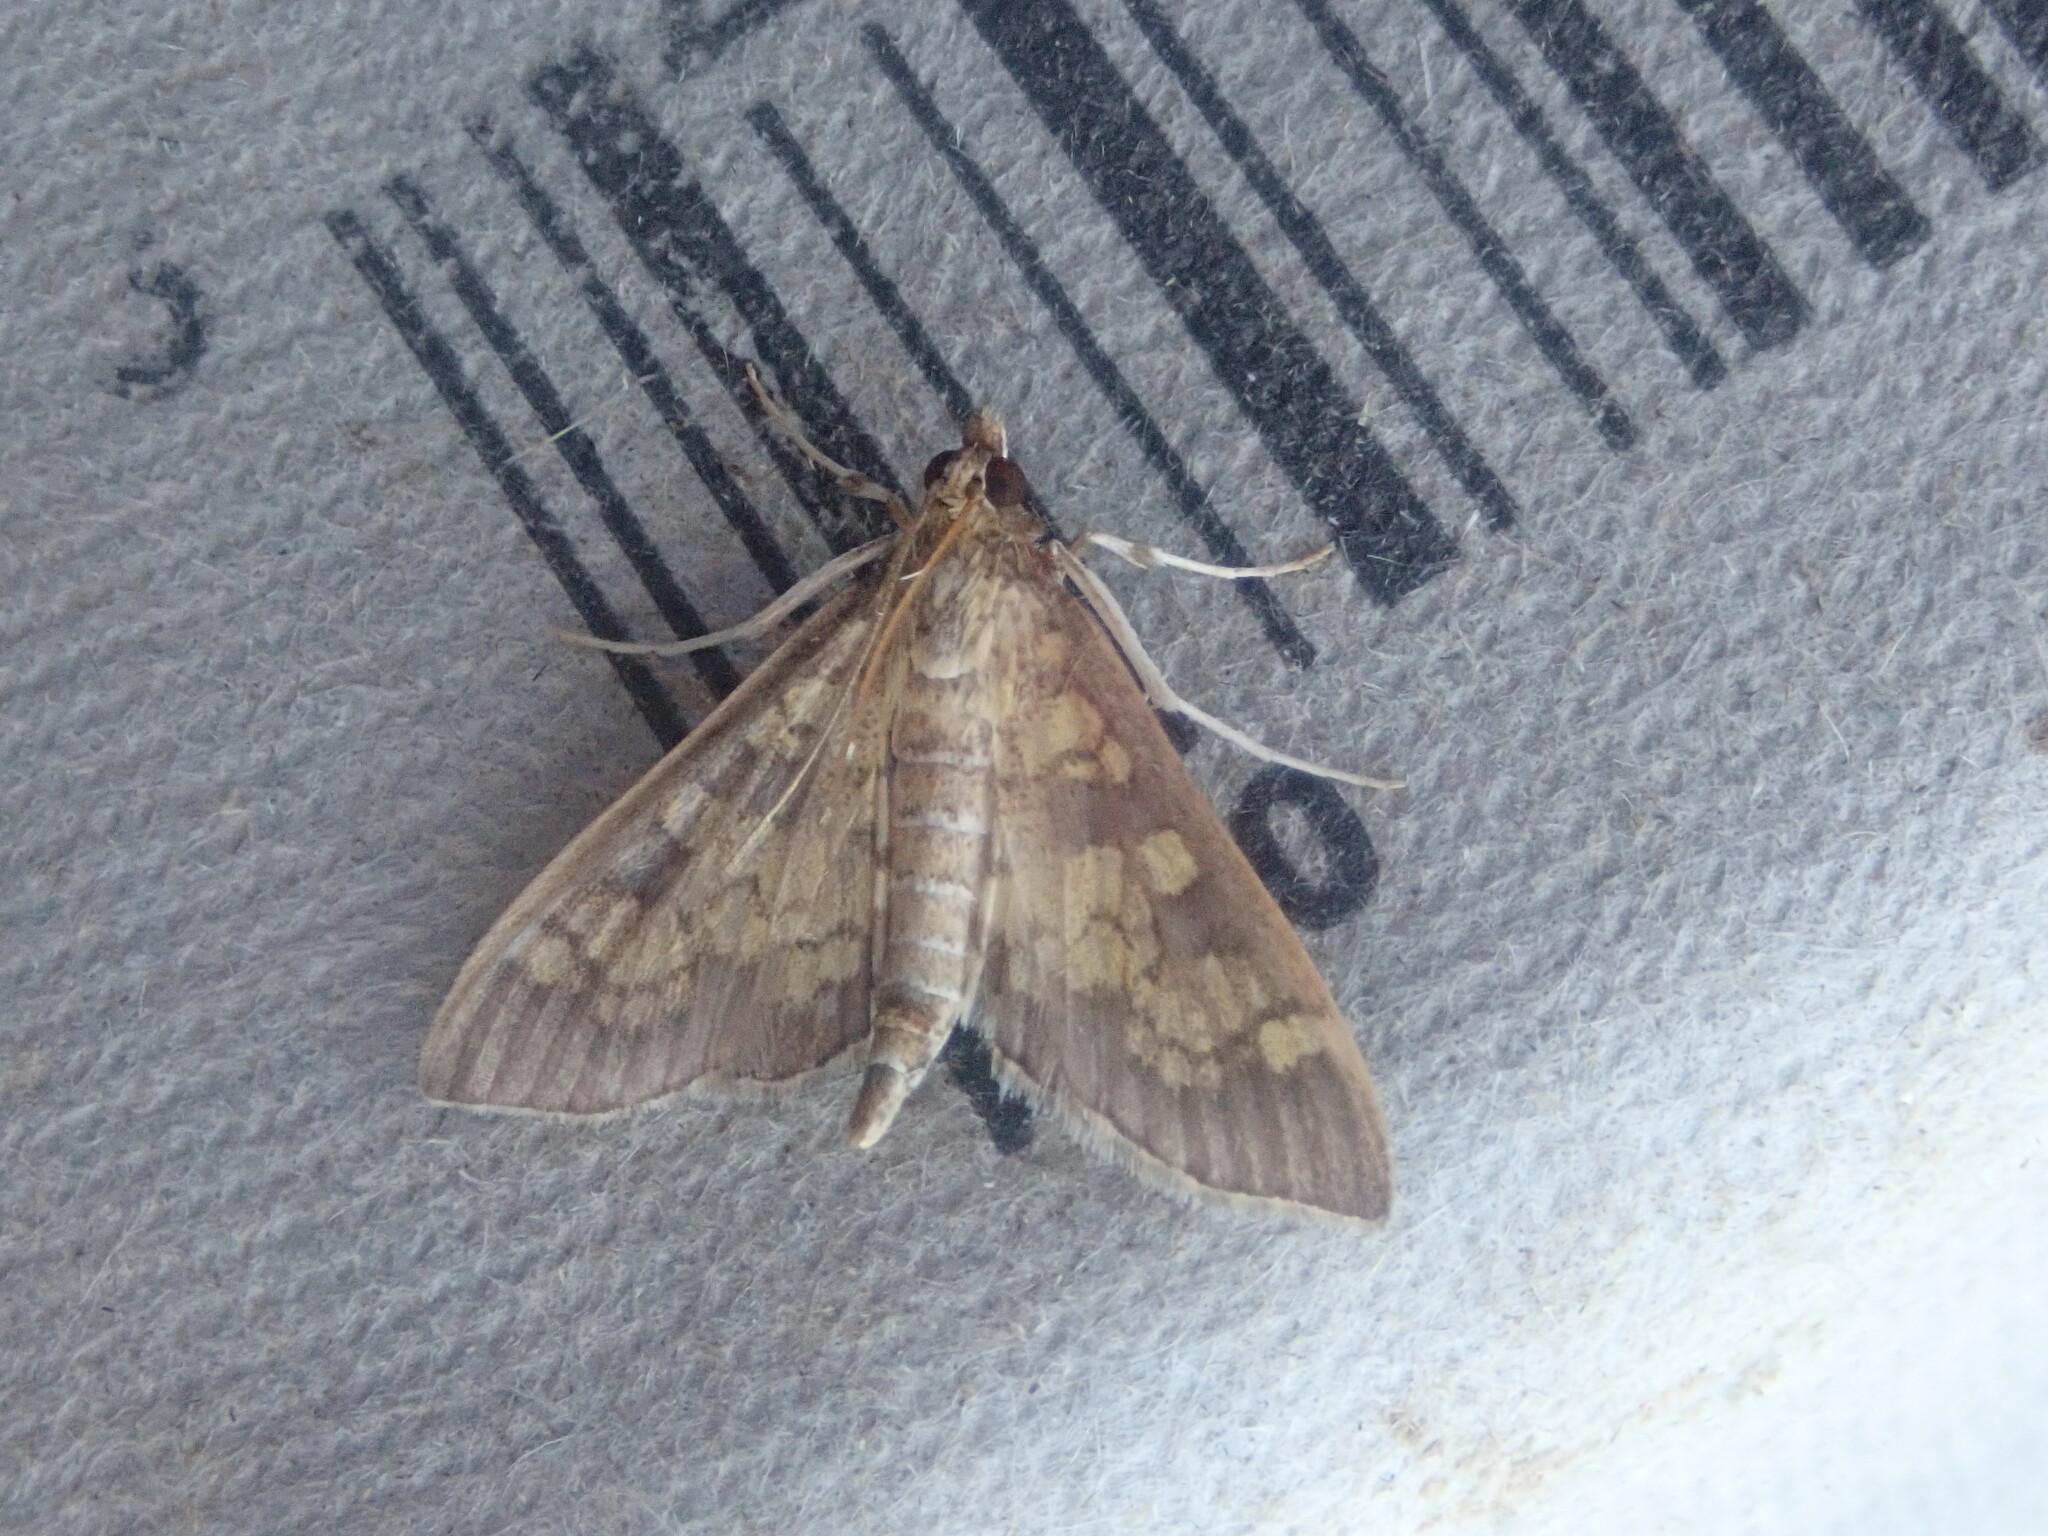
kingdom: Animalia
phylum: Arthropoda
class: Insecta
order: Lepidoptera
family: Crambidae
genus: Epipagis
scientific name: Epipagis adipaloides
